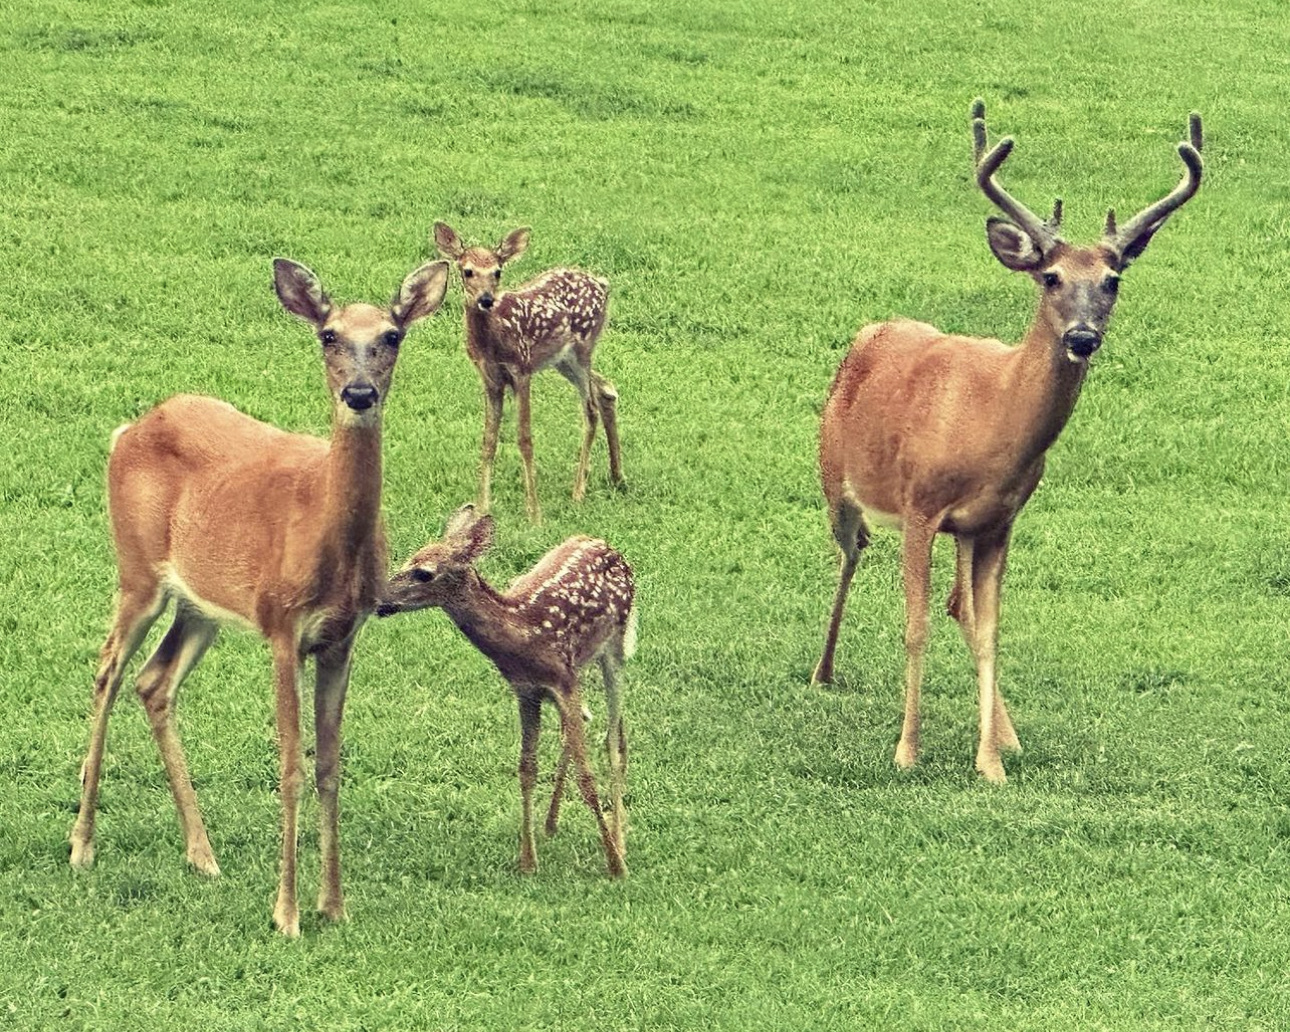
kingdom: Animalia
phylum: Chordata
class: Mammalia
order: Artiodactyla
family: Cervidae
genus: Odocoileus
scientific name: Odocoileus virginianus
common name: White-tailed deer
